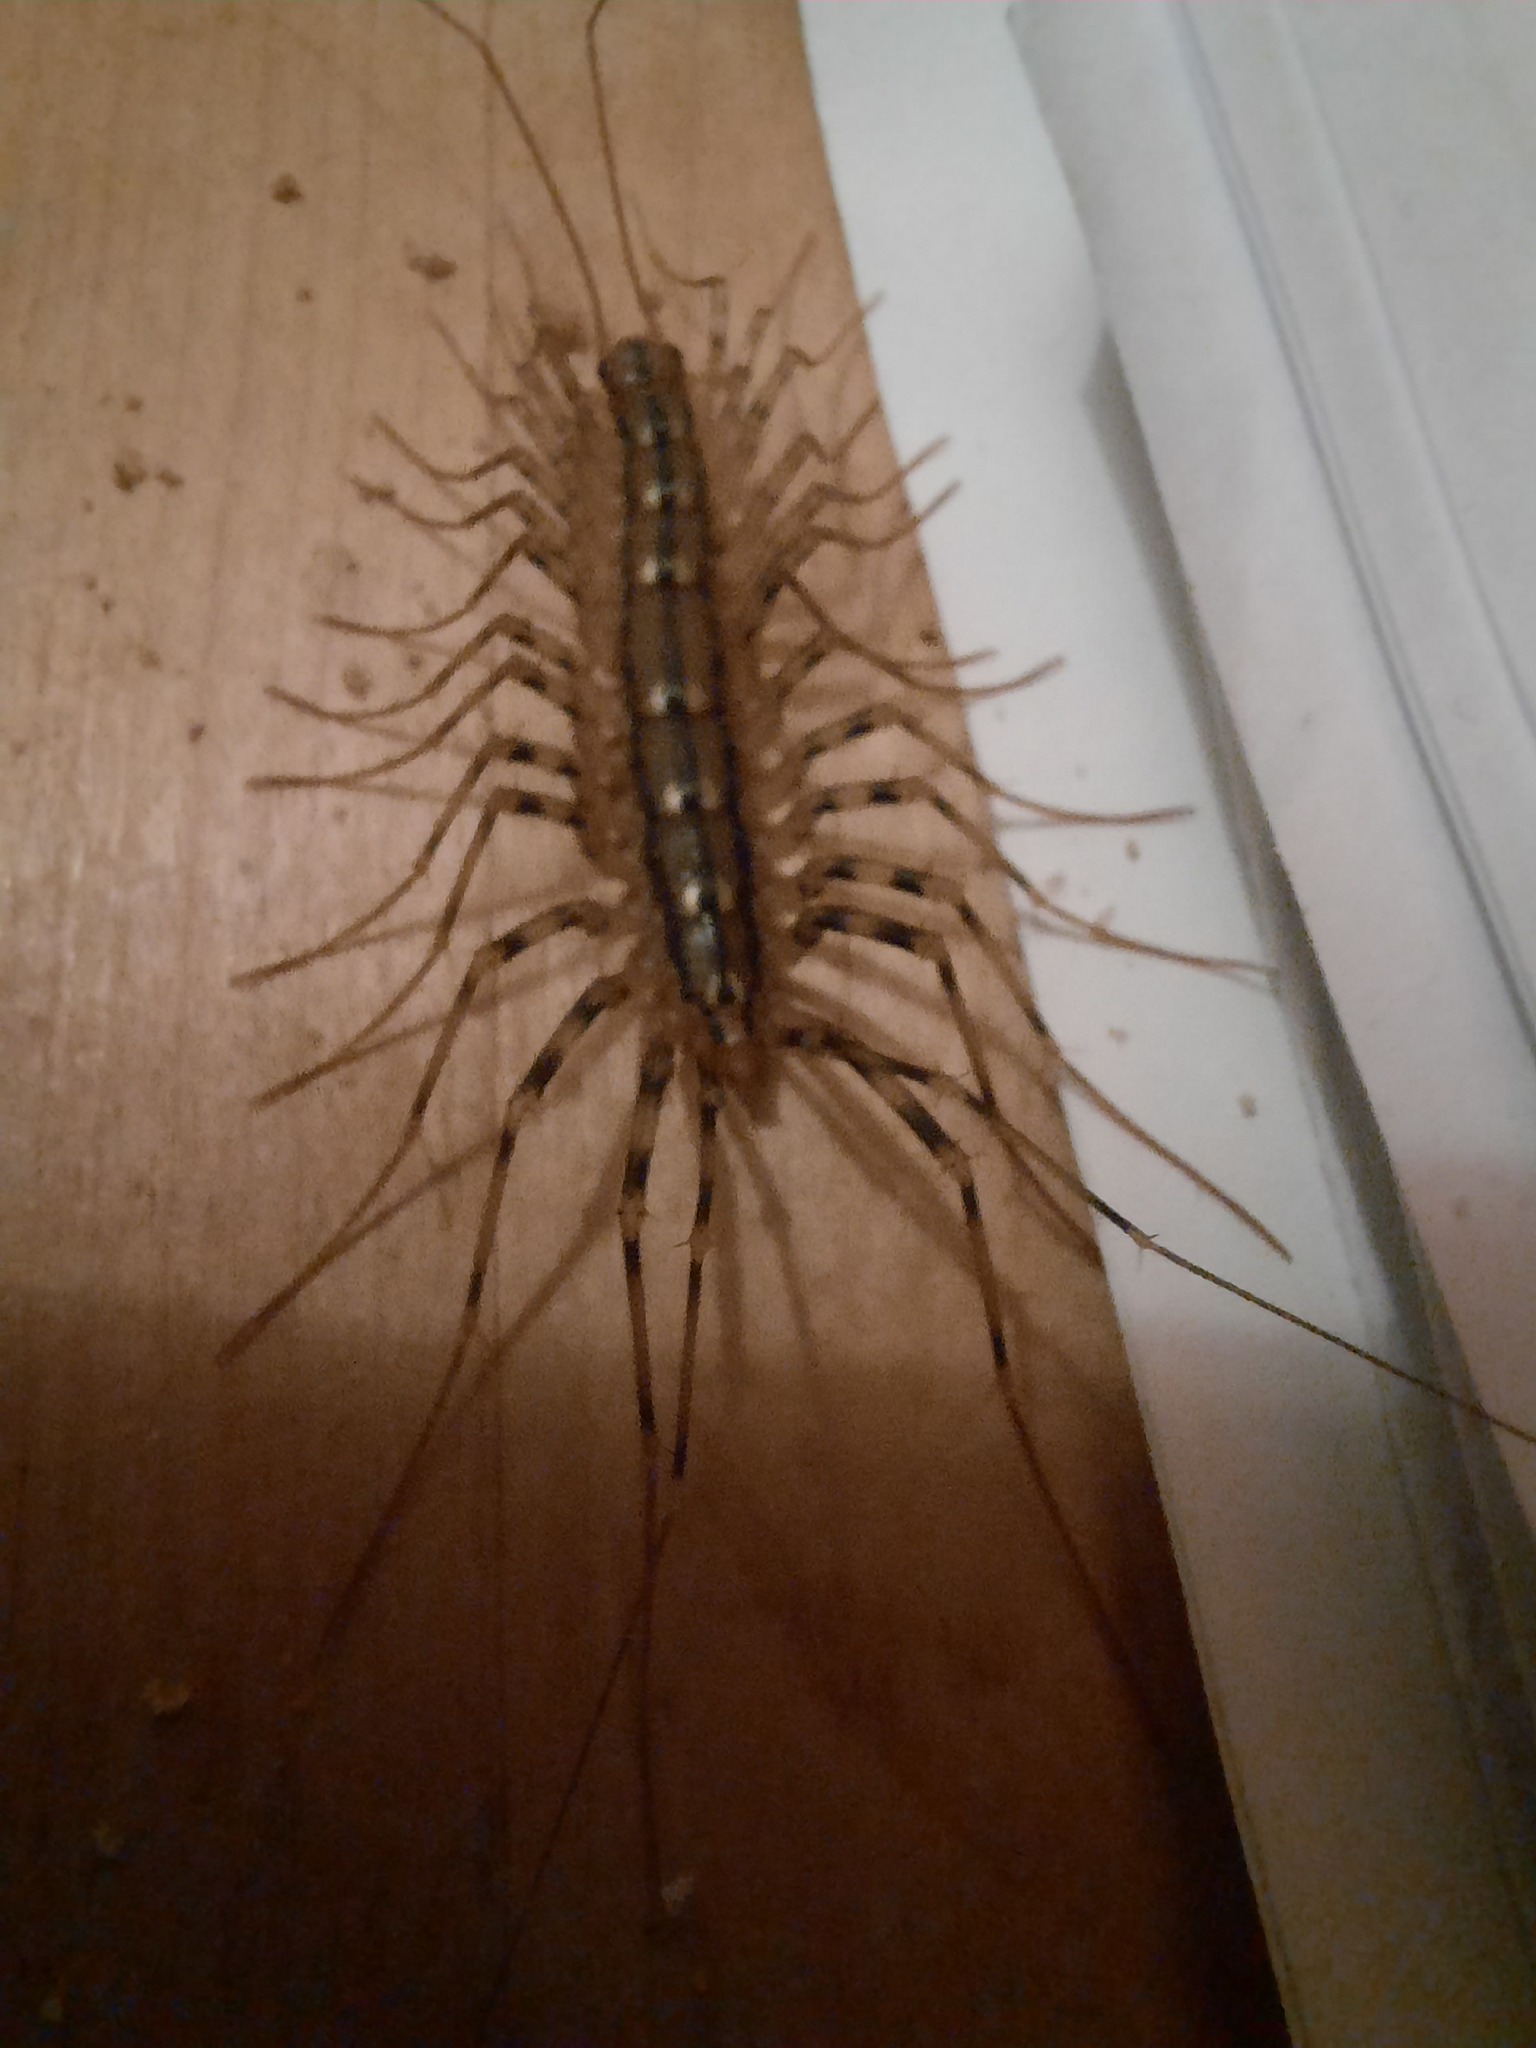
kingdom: Animalia
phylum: Arthropoda
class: Chilopoda
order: Scutigeromorpha
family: Scutigeridae
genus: Scutigera
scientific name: Scutigera coleoptrata
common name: House centipede
